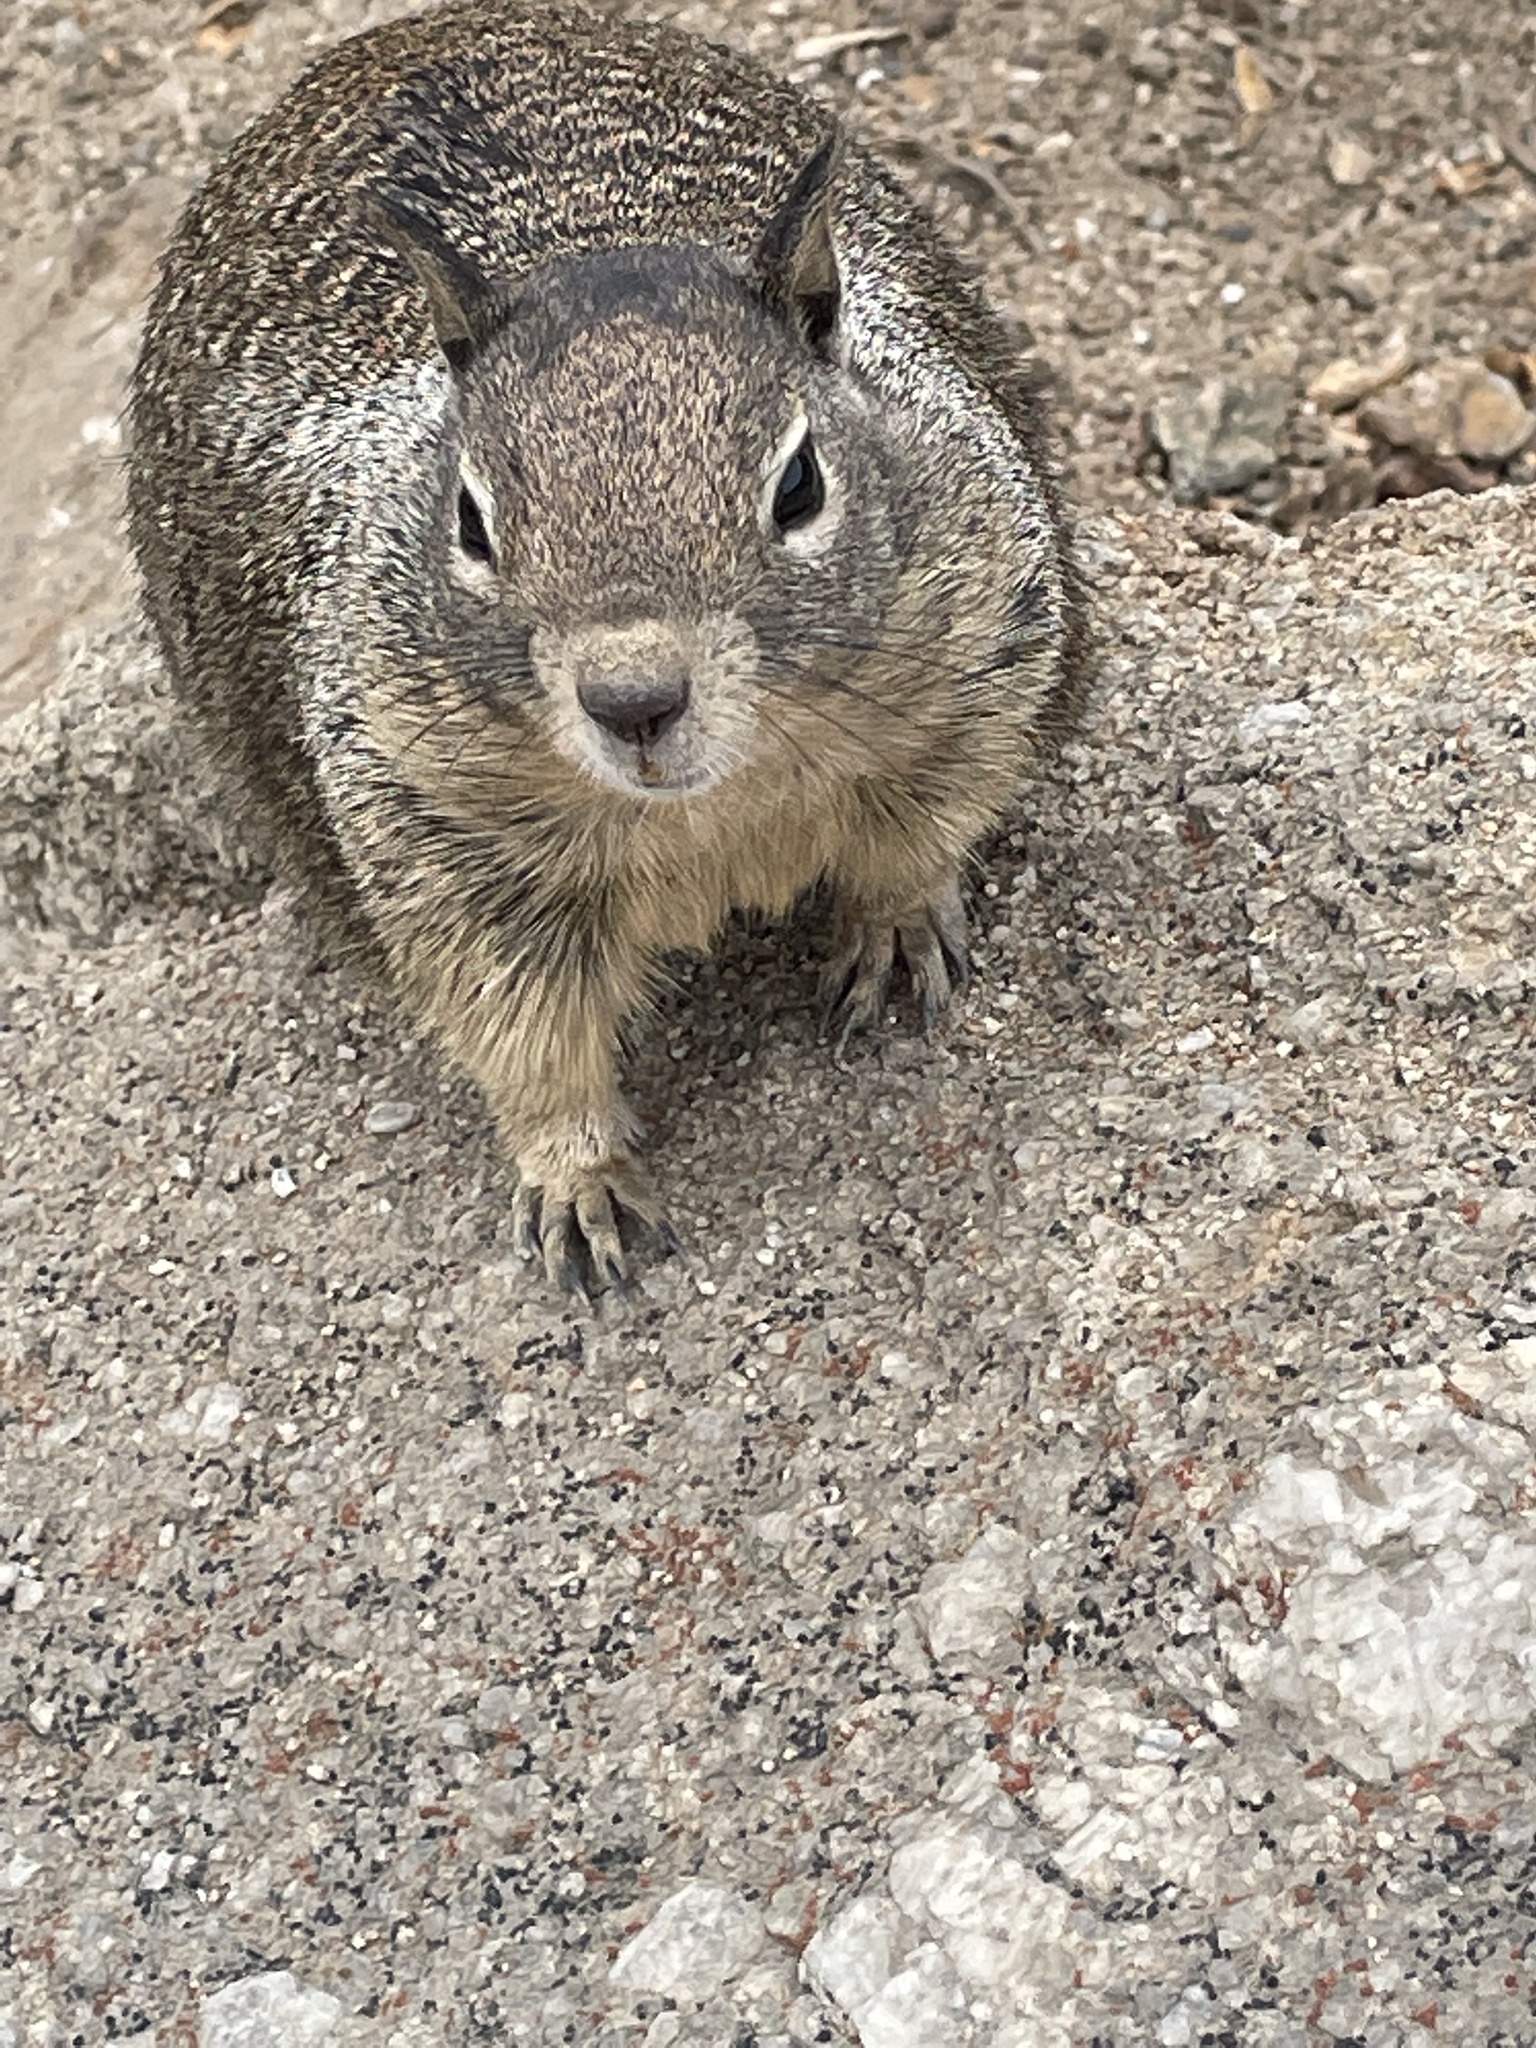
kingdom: Animalia
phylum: Chordata
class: Mammalia
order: Rodentia
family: Sciuridae
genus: Otospermophilus
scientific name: Otospermophilus beecheyi
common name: California ground squirrel
